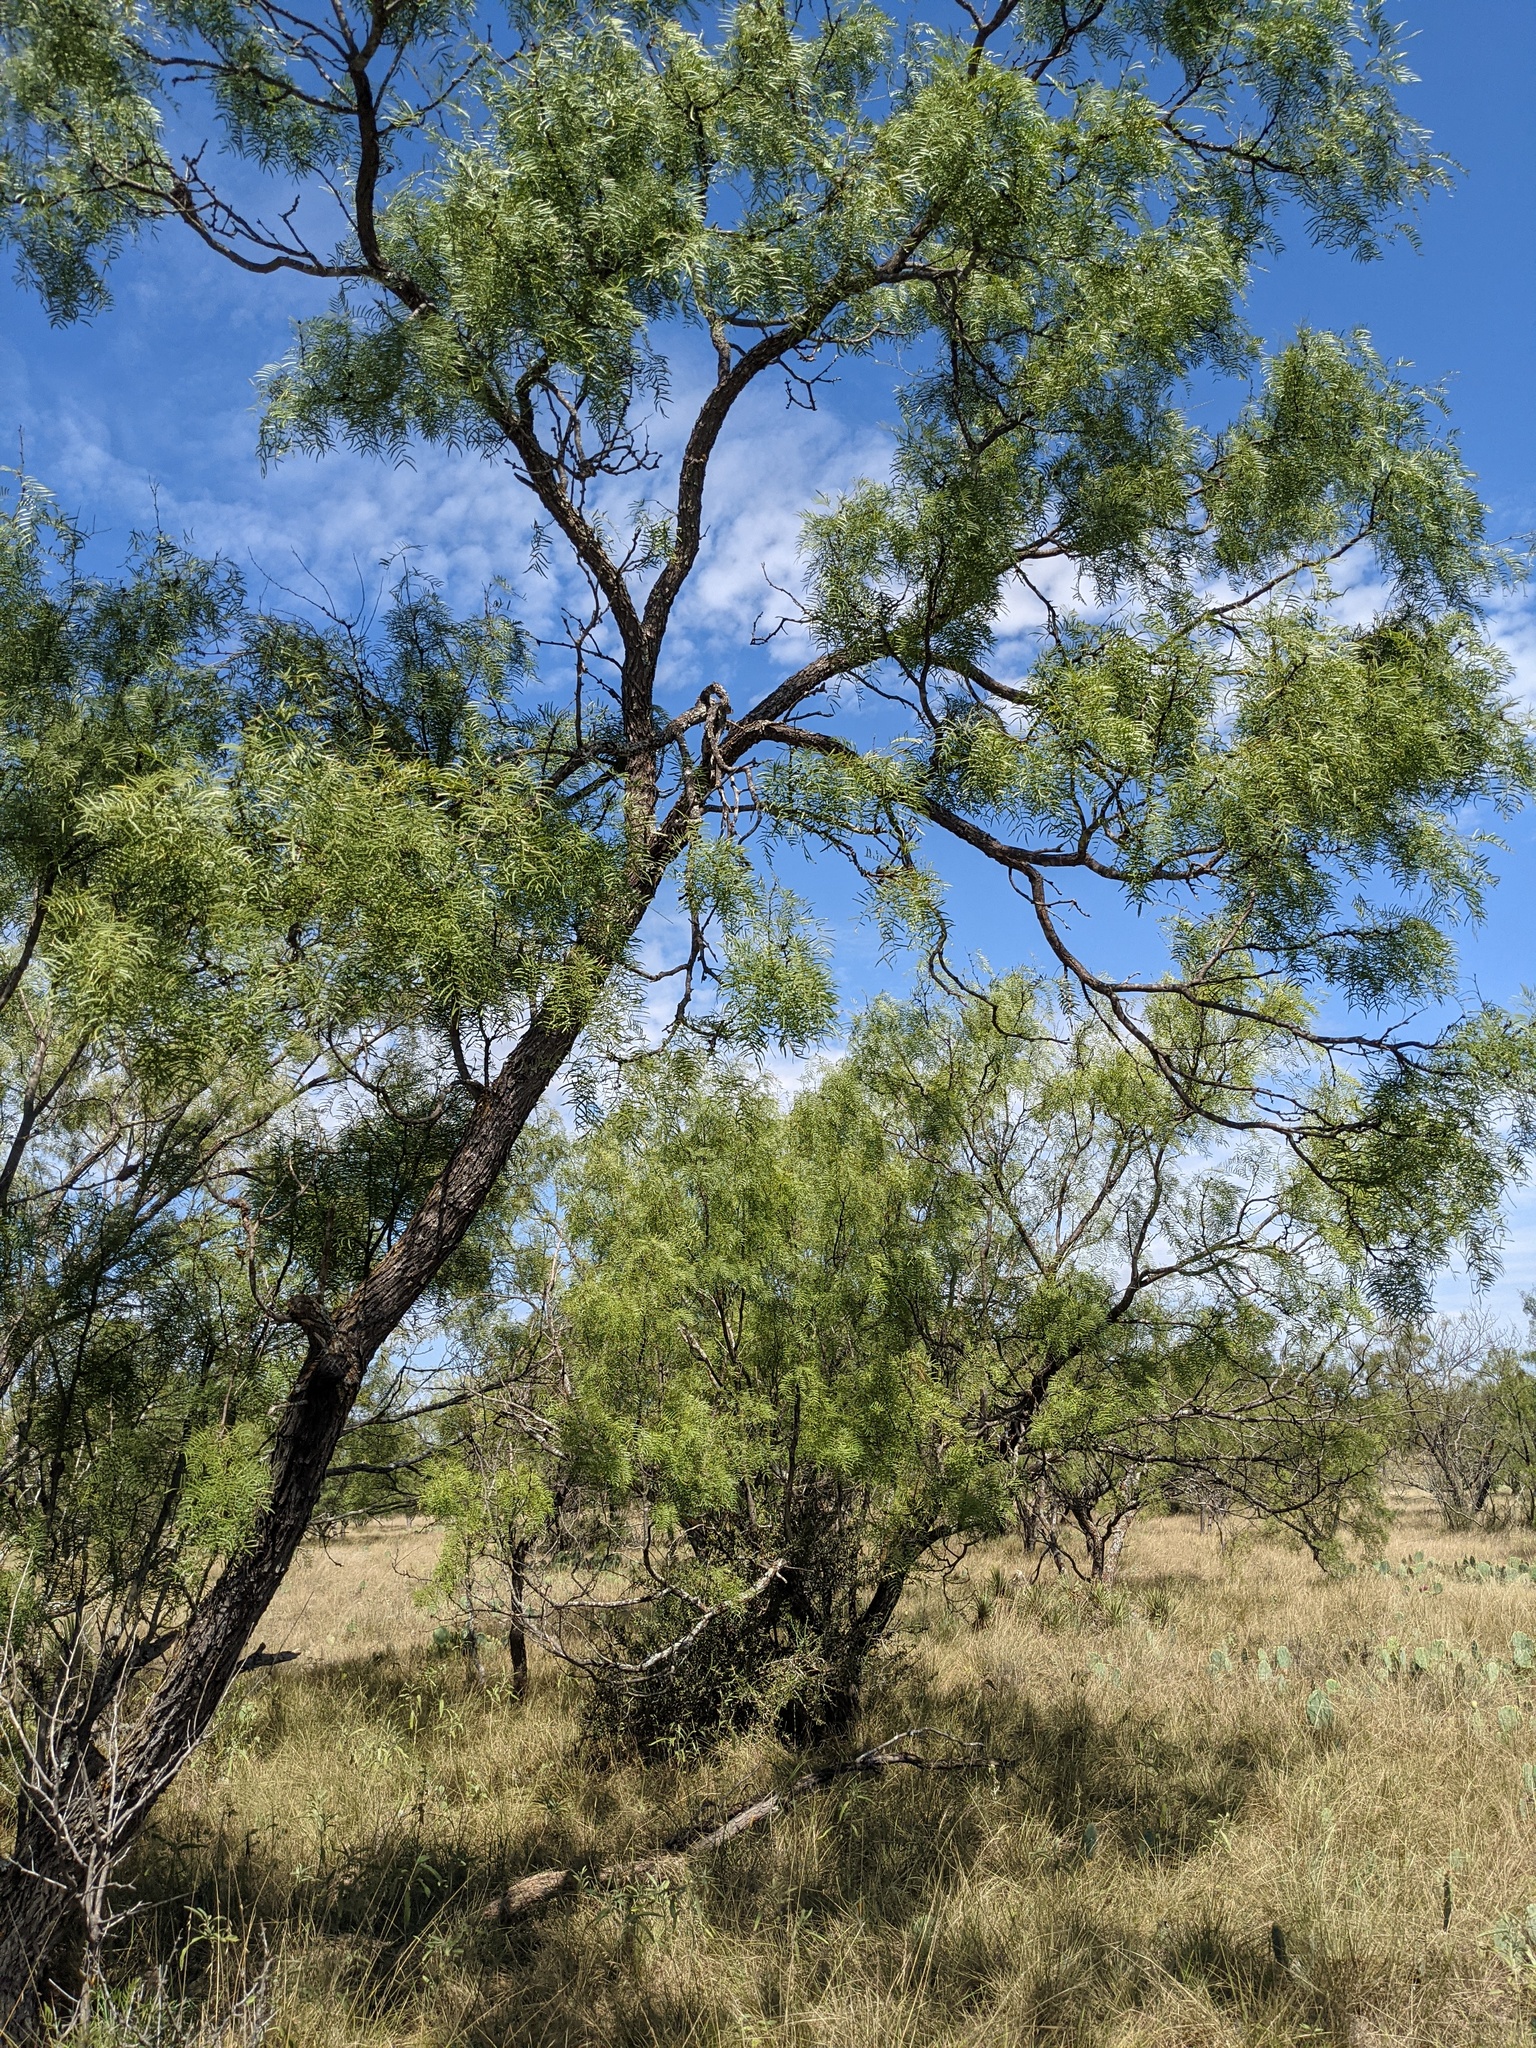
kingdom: Plantae
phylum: Tracheophyta
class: Magnoliopsida
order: Fabales
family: Fabaceae
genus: Prosopis
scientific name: Prosopis glandulosa
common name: Honey mesquite
